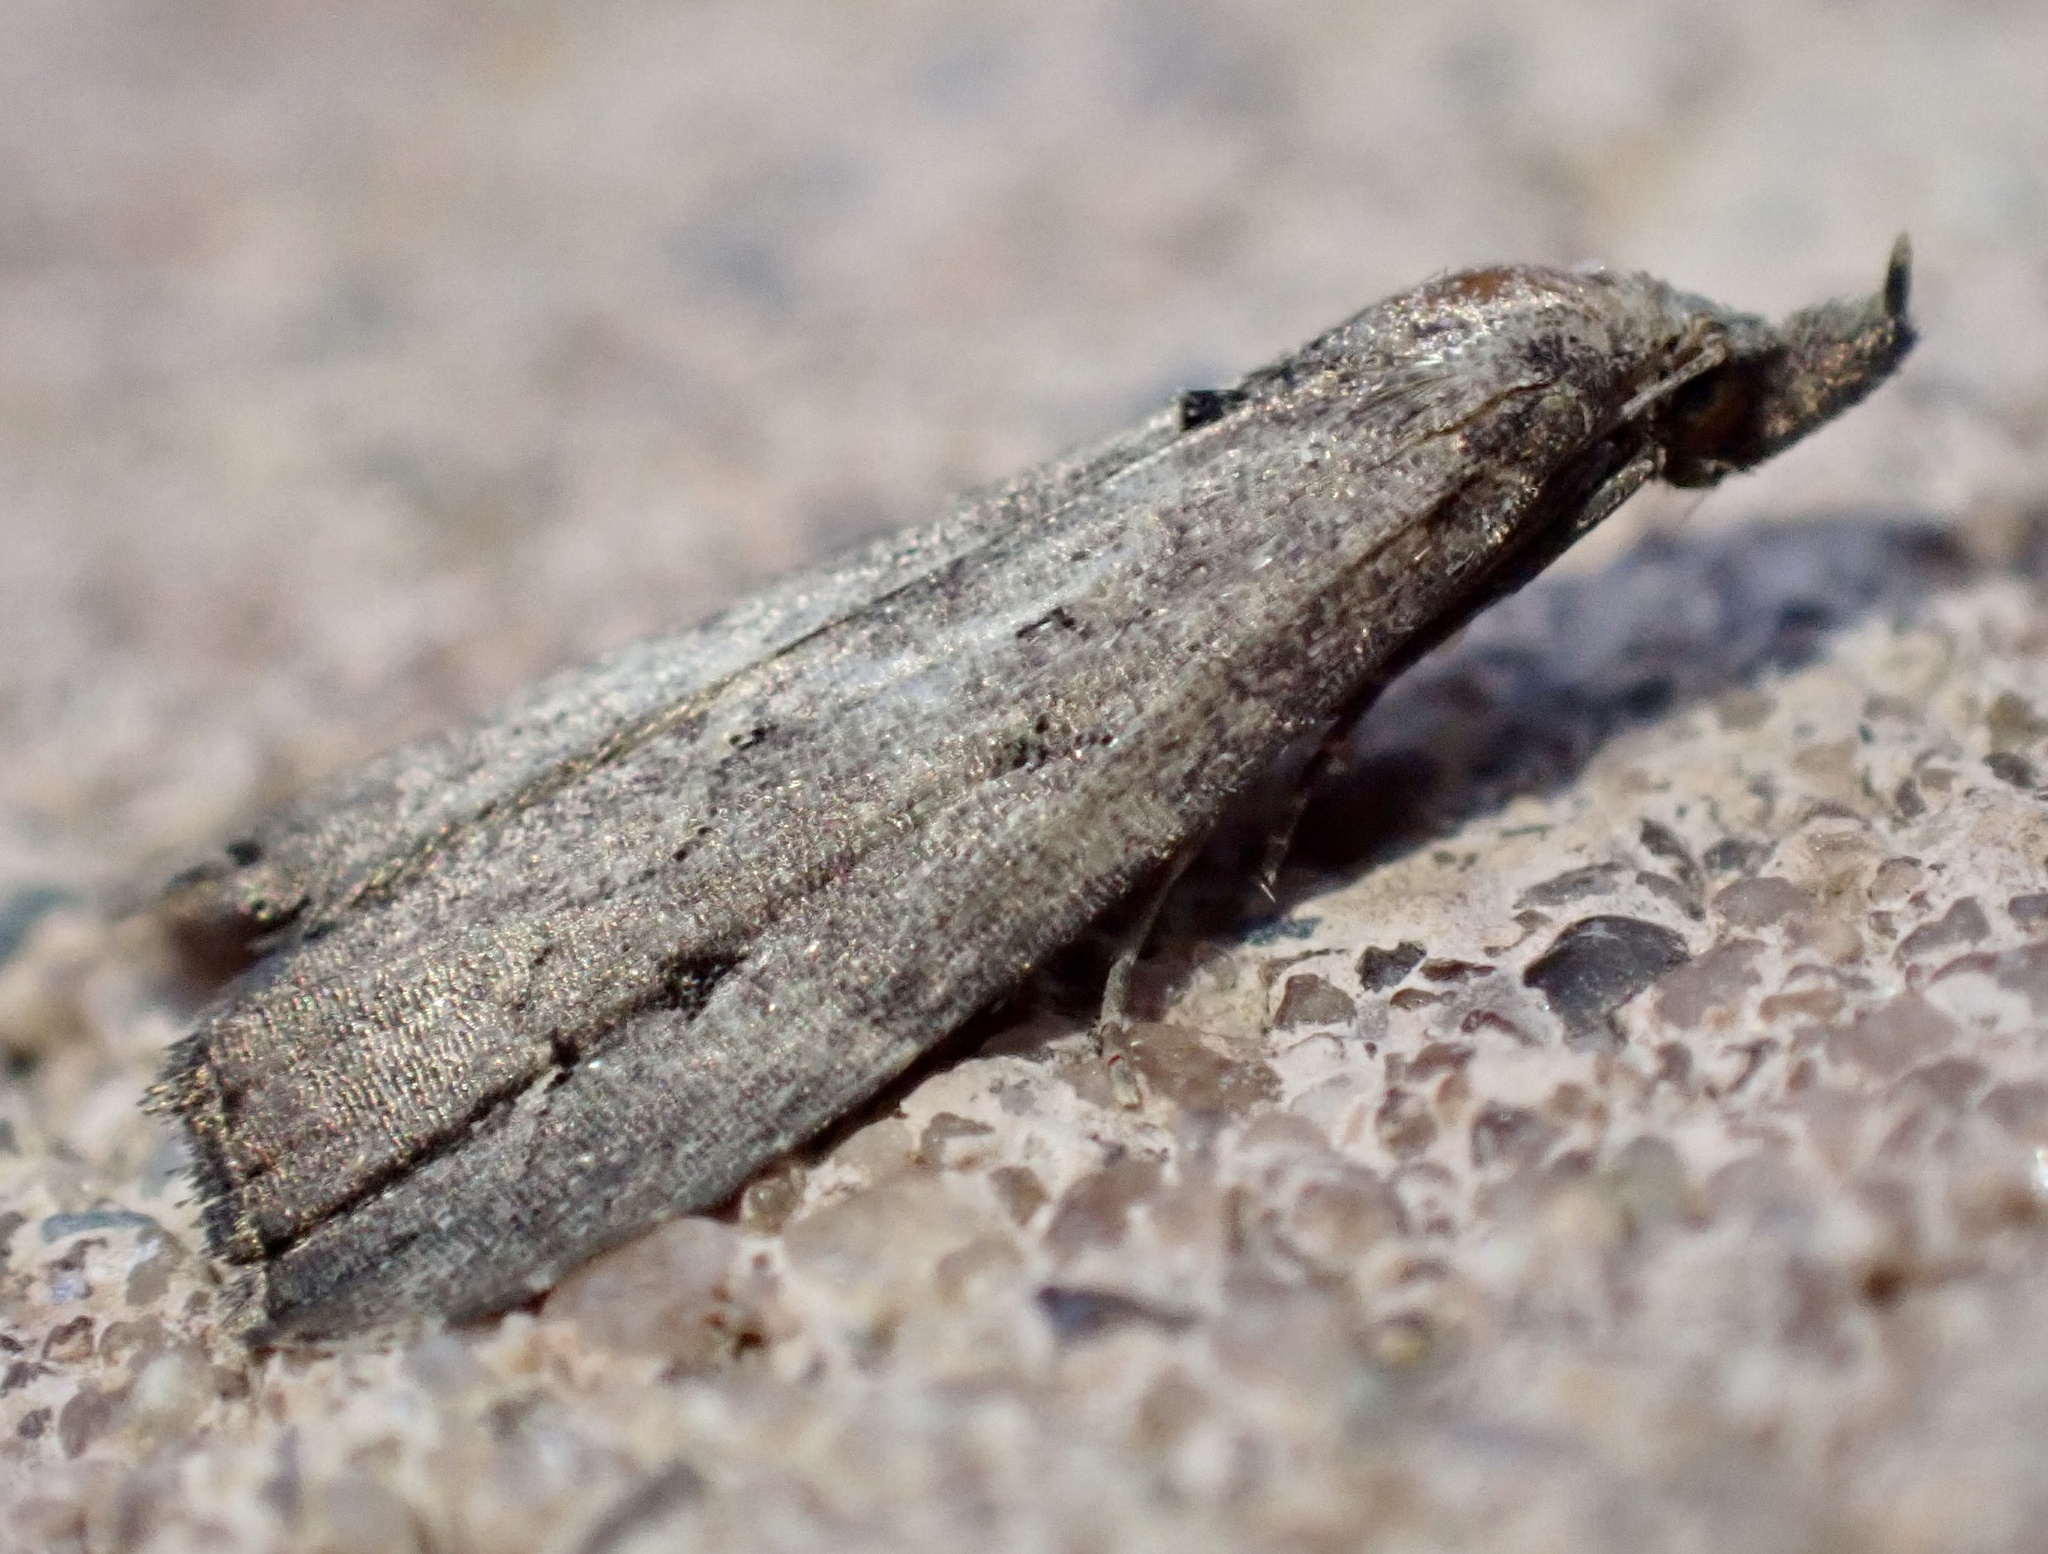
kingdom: Animalia
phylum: Arthropoda
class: Insecta
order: Lepidoptera
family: Erebidae
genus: Schrankia
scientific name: Schrankia costaestrigalis
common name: Pinion-streaked snout
